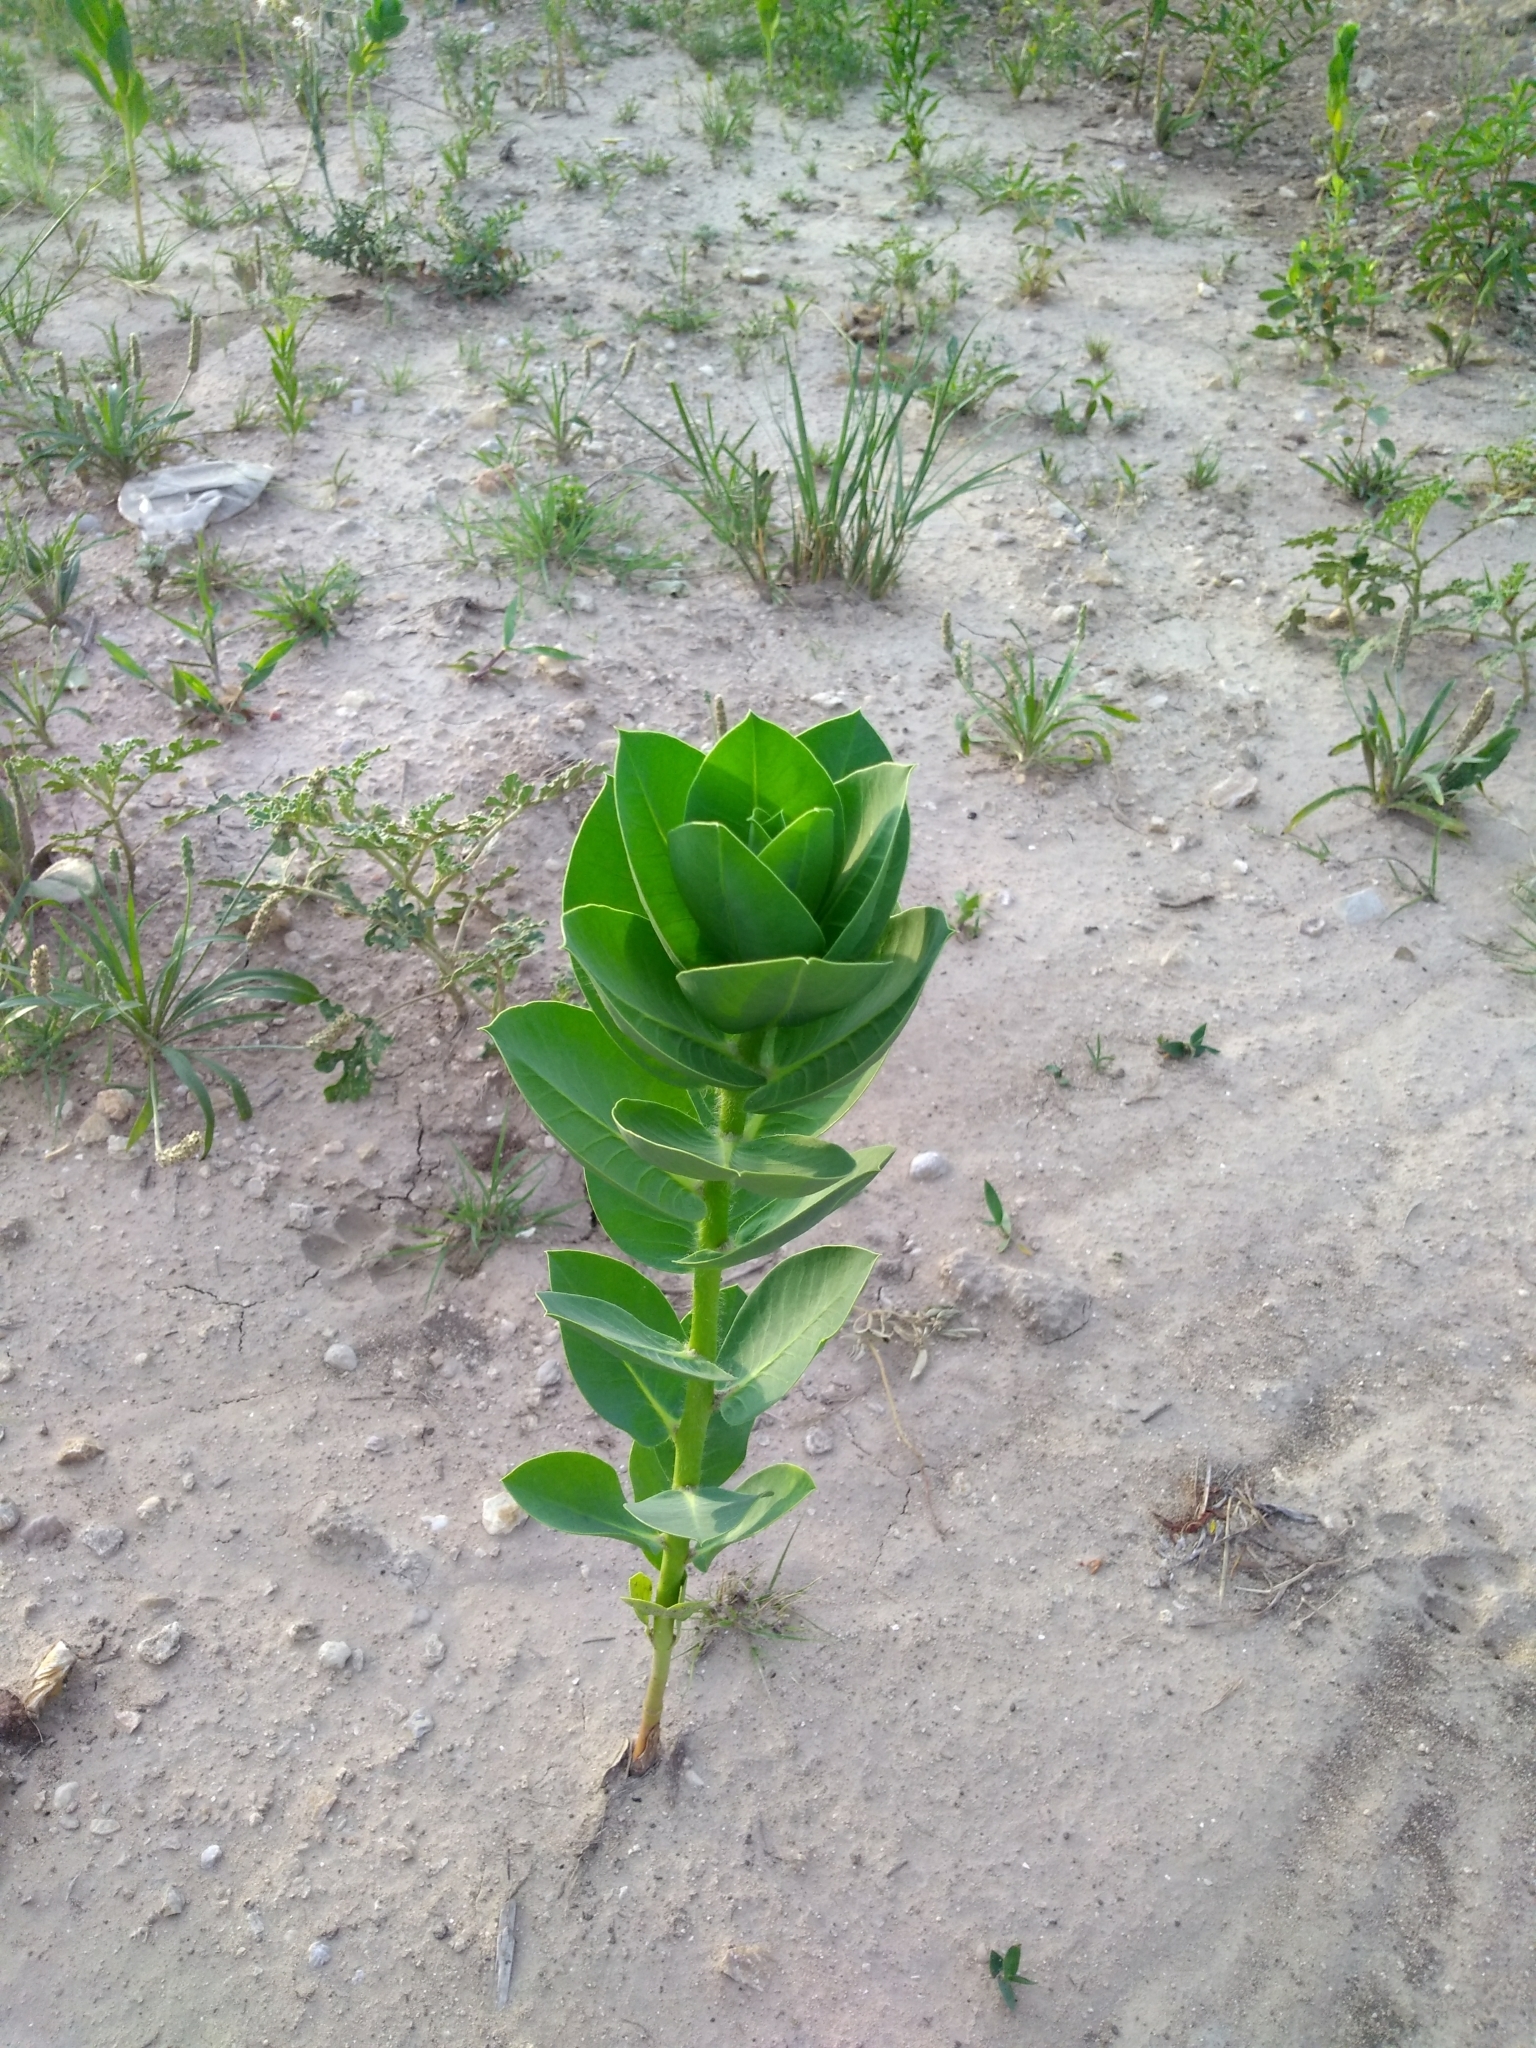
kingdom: Plantae
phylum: Tracheophyta
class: Magnoliopsida
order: Malpighiales
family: Euphorbiaceae
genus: Euphorbia
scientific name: Euphorbia marginata
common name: Ghostweed
